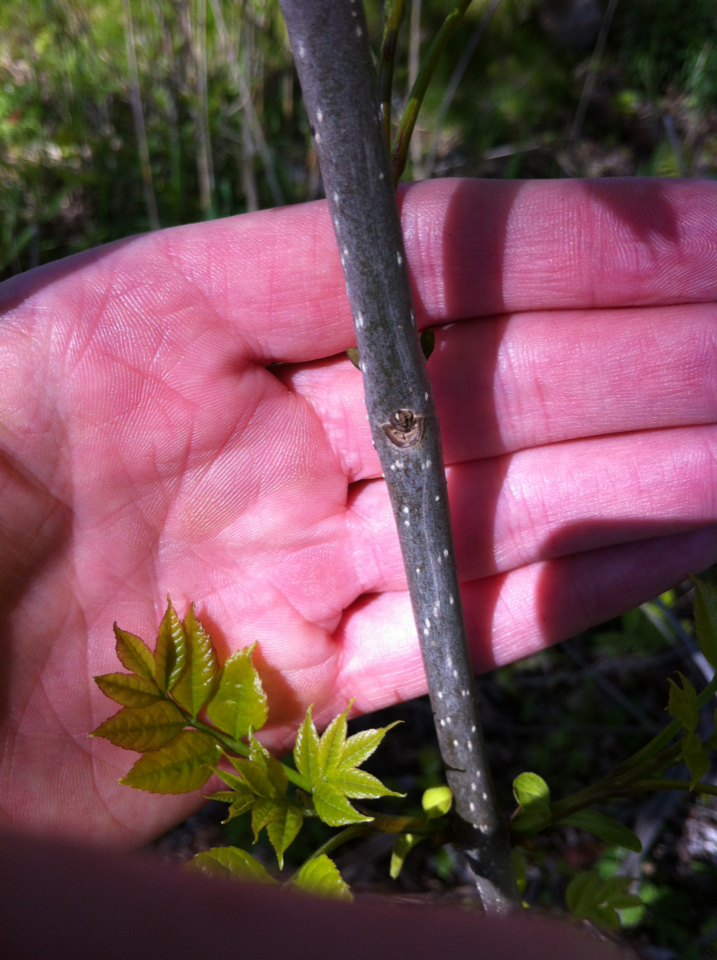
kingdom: Plantae
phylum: Tracheophyta
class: Magnoliopsida
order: Lamiales
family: Oleaceae
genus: Fraxinus
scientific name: Fraxinus
